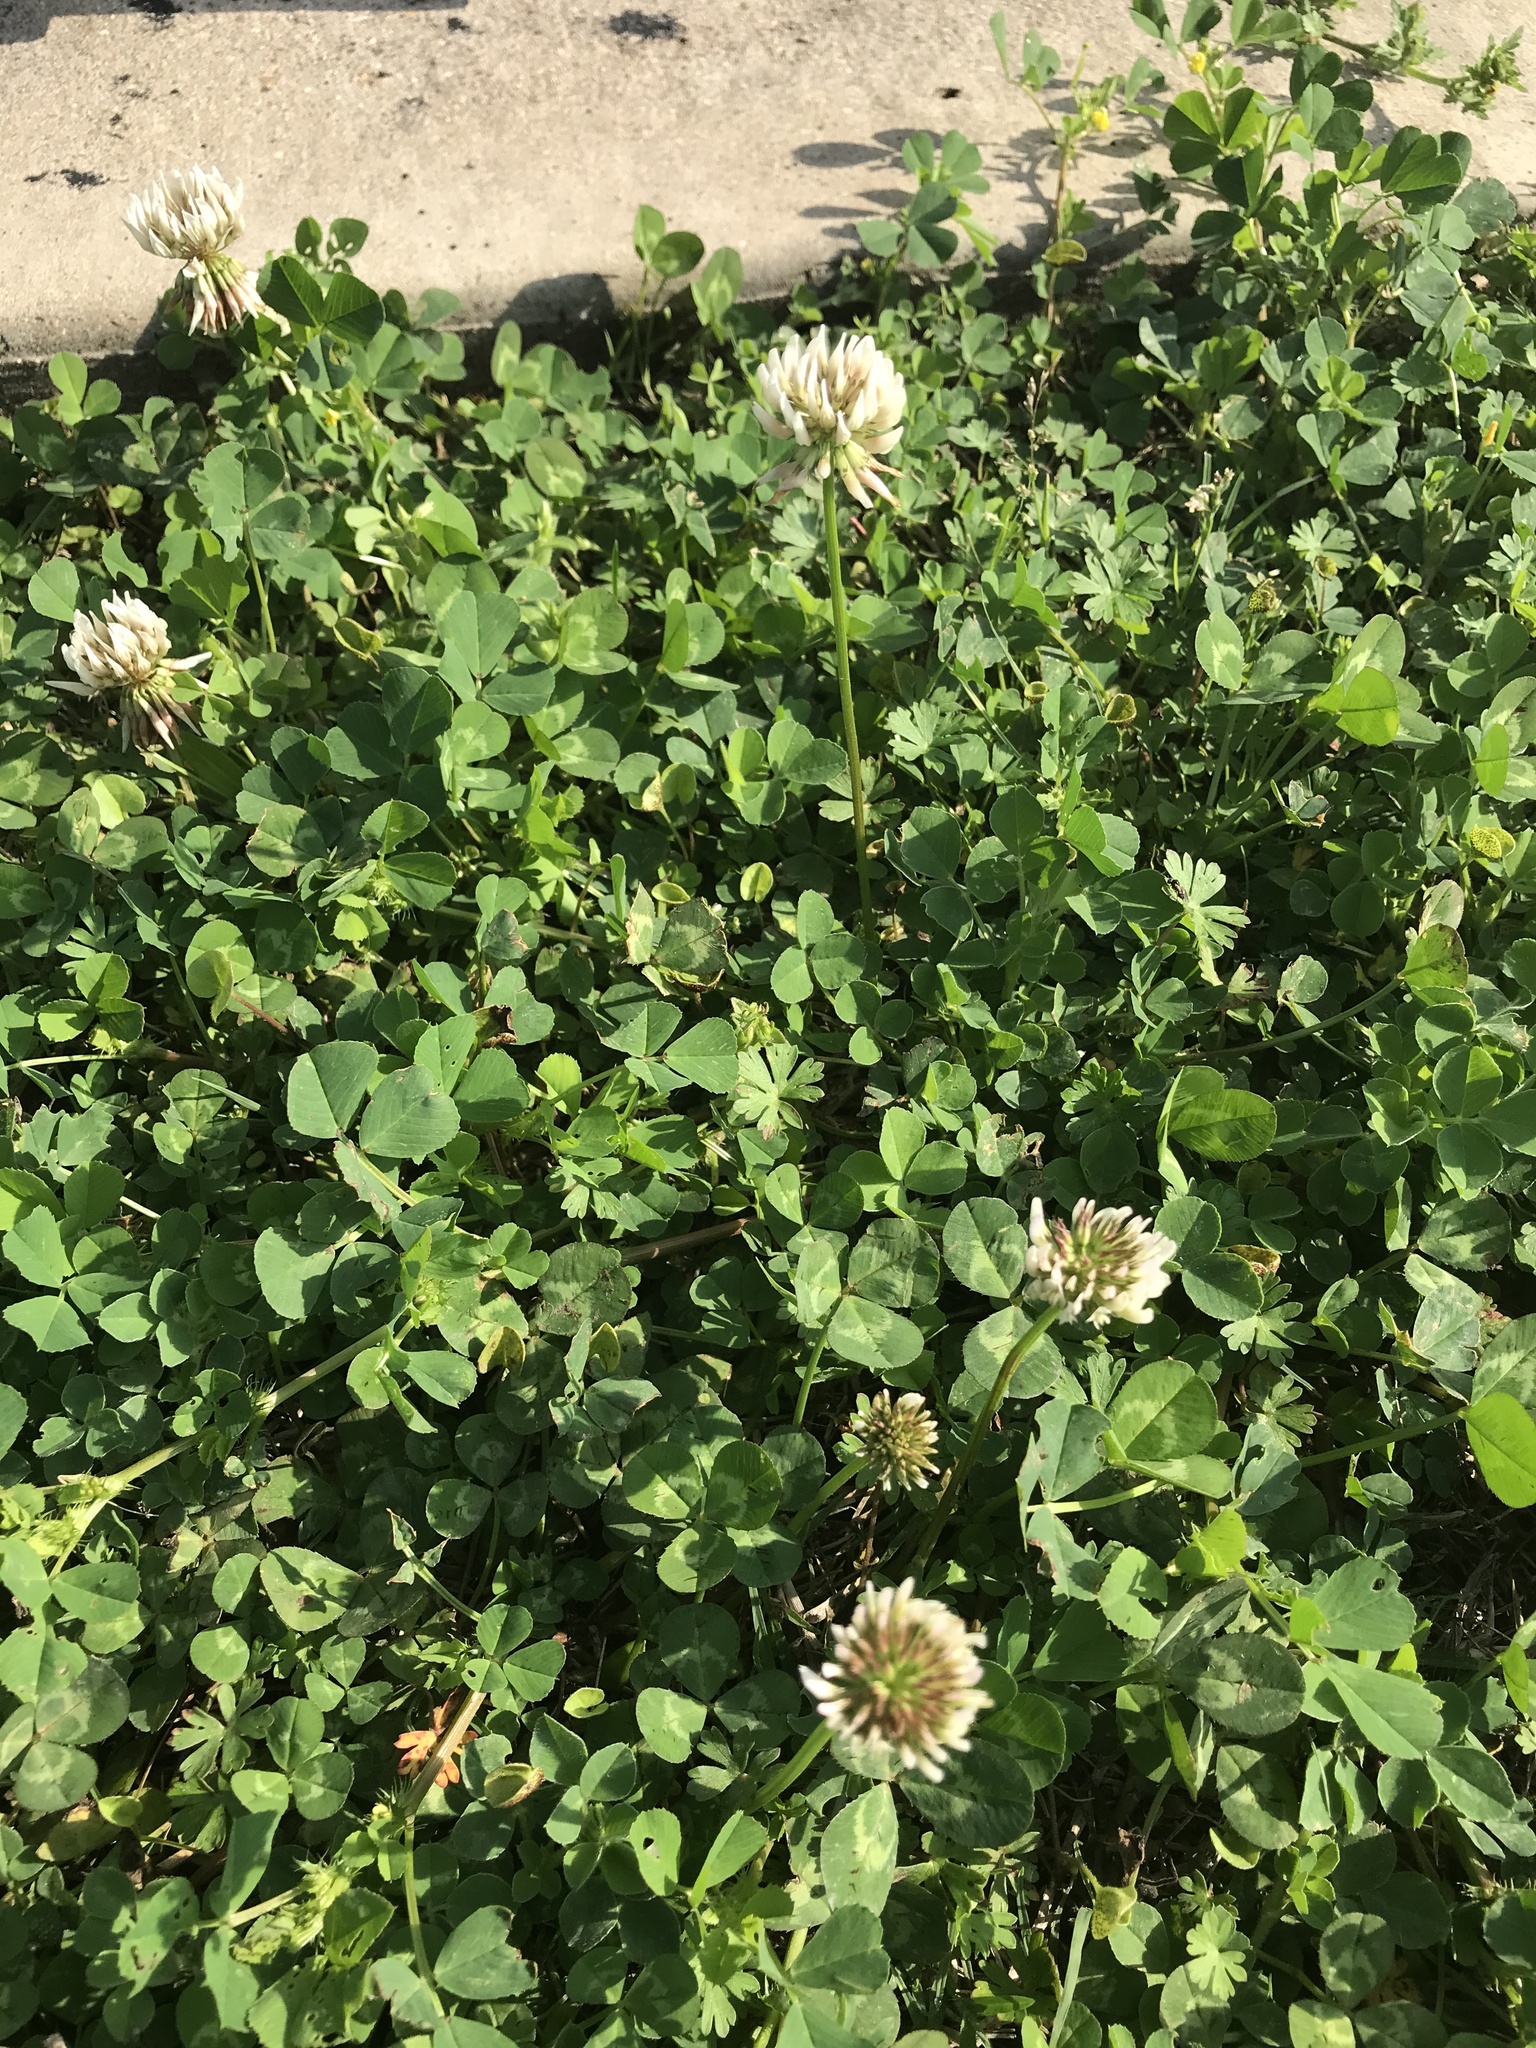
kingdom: Plantae
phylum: Tracheophyta
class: Magnoliopsida
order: Fabales
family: Fabaceae
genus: Trifolium
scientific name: Trifolium repens
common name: White clover
